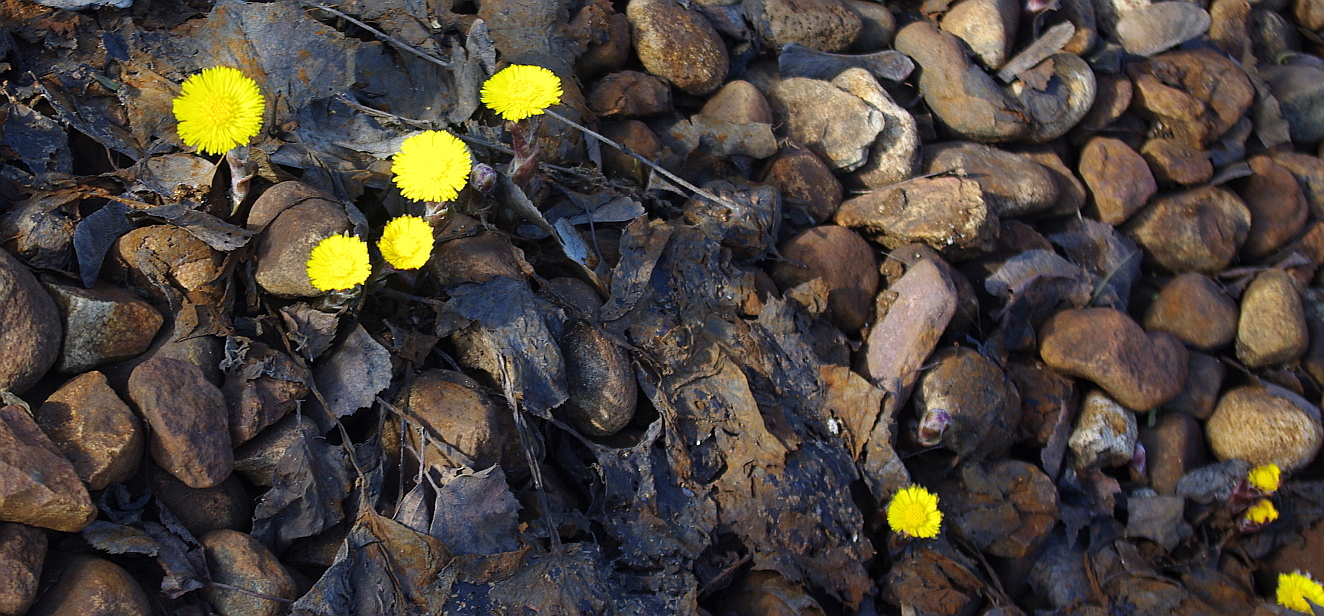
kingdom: Plantae
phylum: Tracheophyta
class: Magnoliopsida
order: Asterales
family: Asteraceae
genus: Tussilago
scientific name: Tussilago farfara
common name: Coltsfoot
